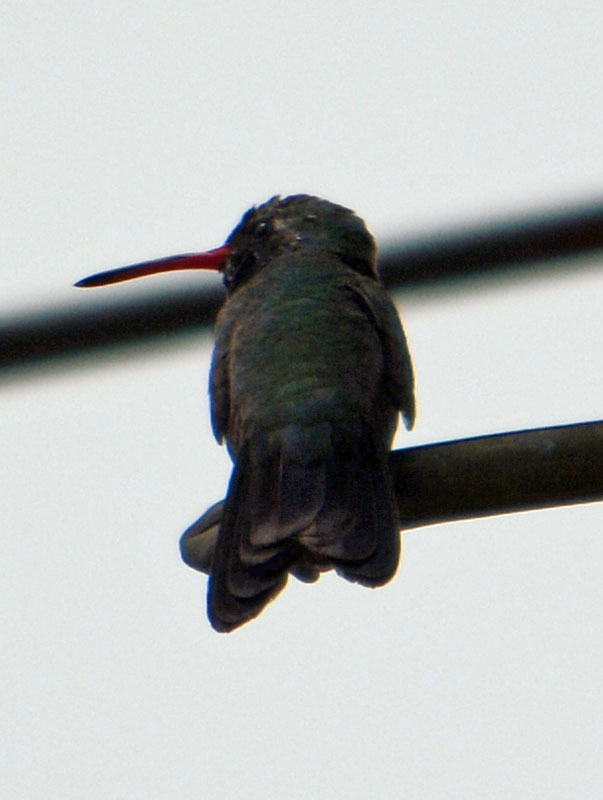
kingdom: Animalia
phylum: Chordata
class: Aves
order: Apodiformes
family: Trochilidae
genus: Cynanthus
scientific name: Cynanthus latirostris
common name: Broad-billed hummingbird
